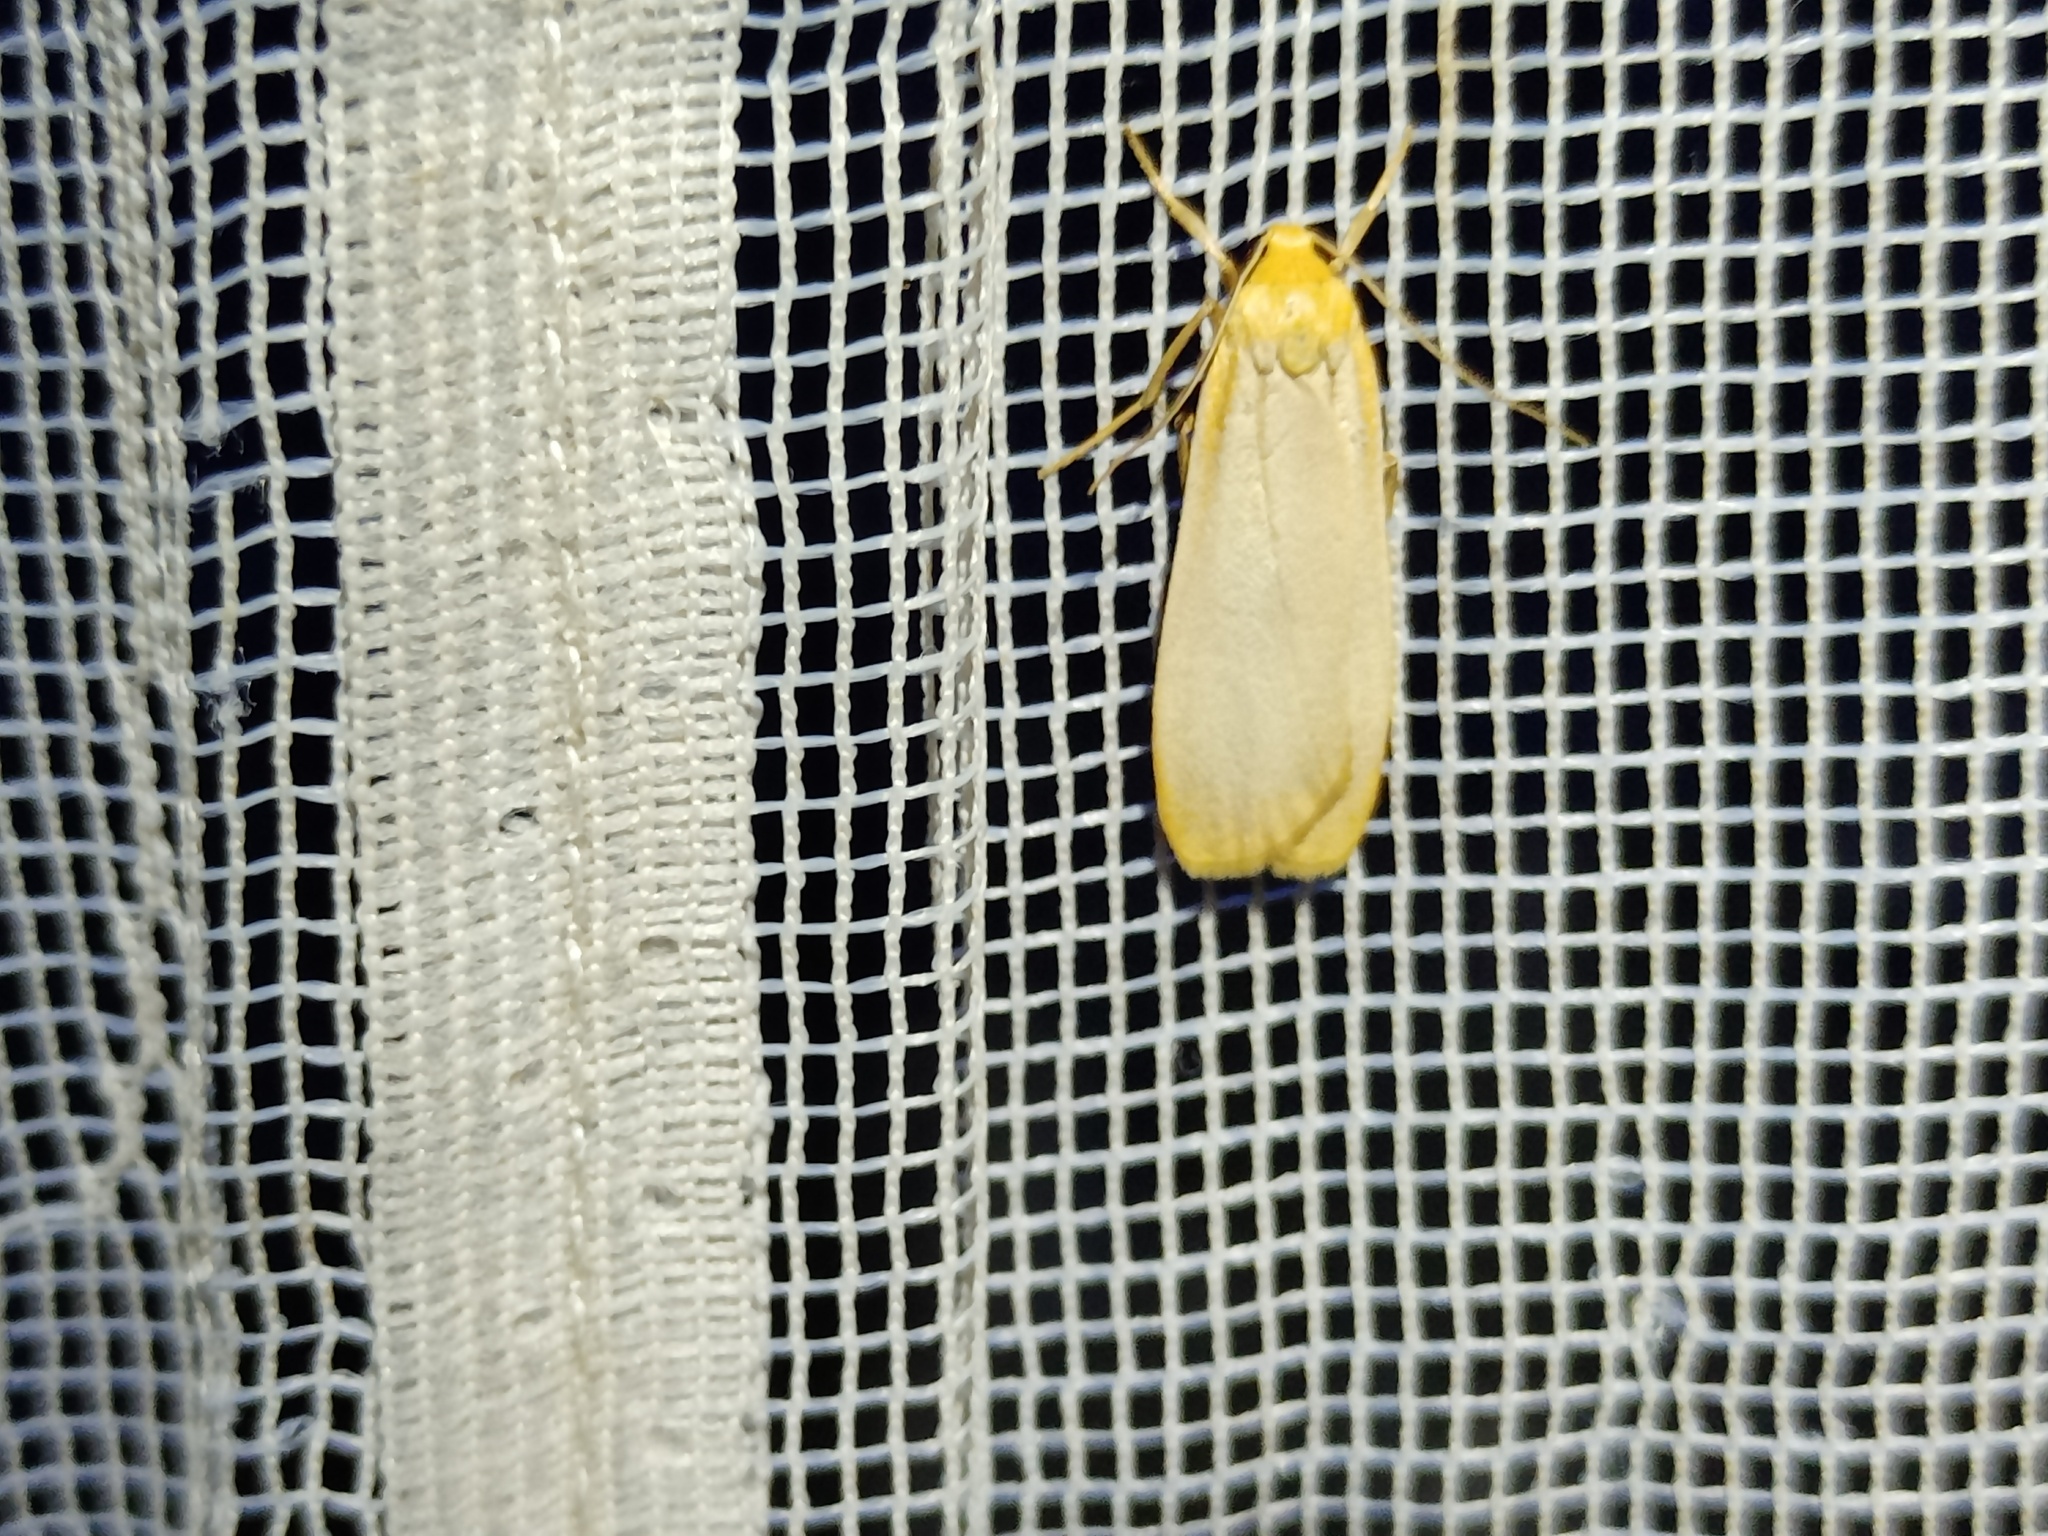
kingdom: Animalia
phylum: Arthropoda
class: Insecta
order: Lepidoptera
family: Erebidae
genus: Katha
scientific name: Katha depressa
